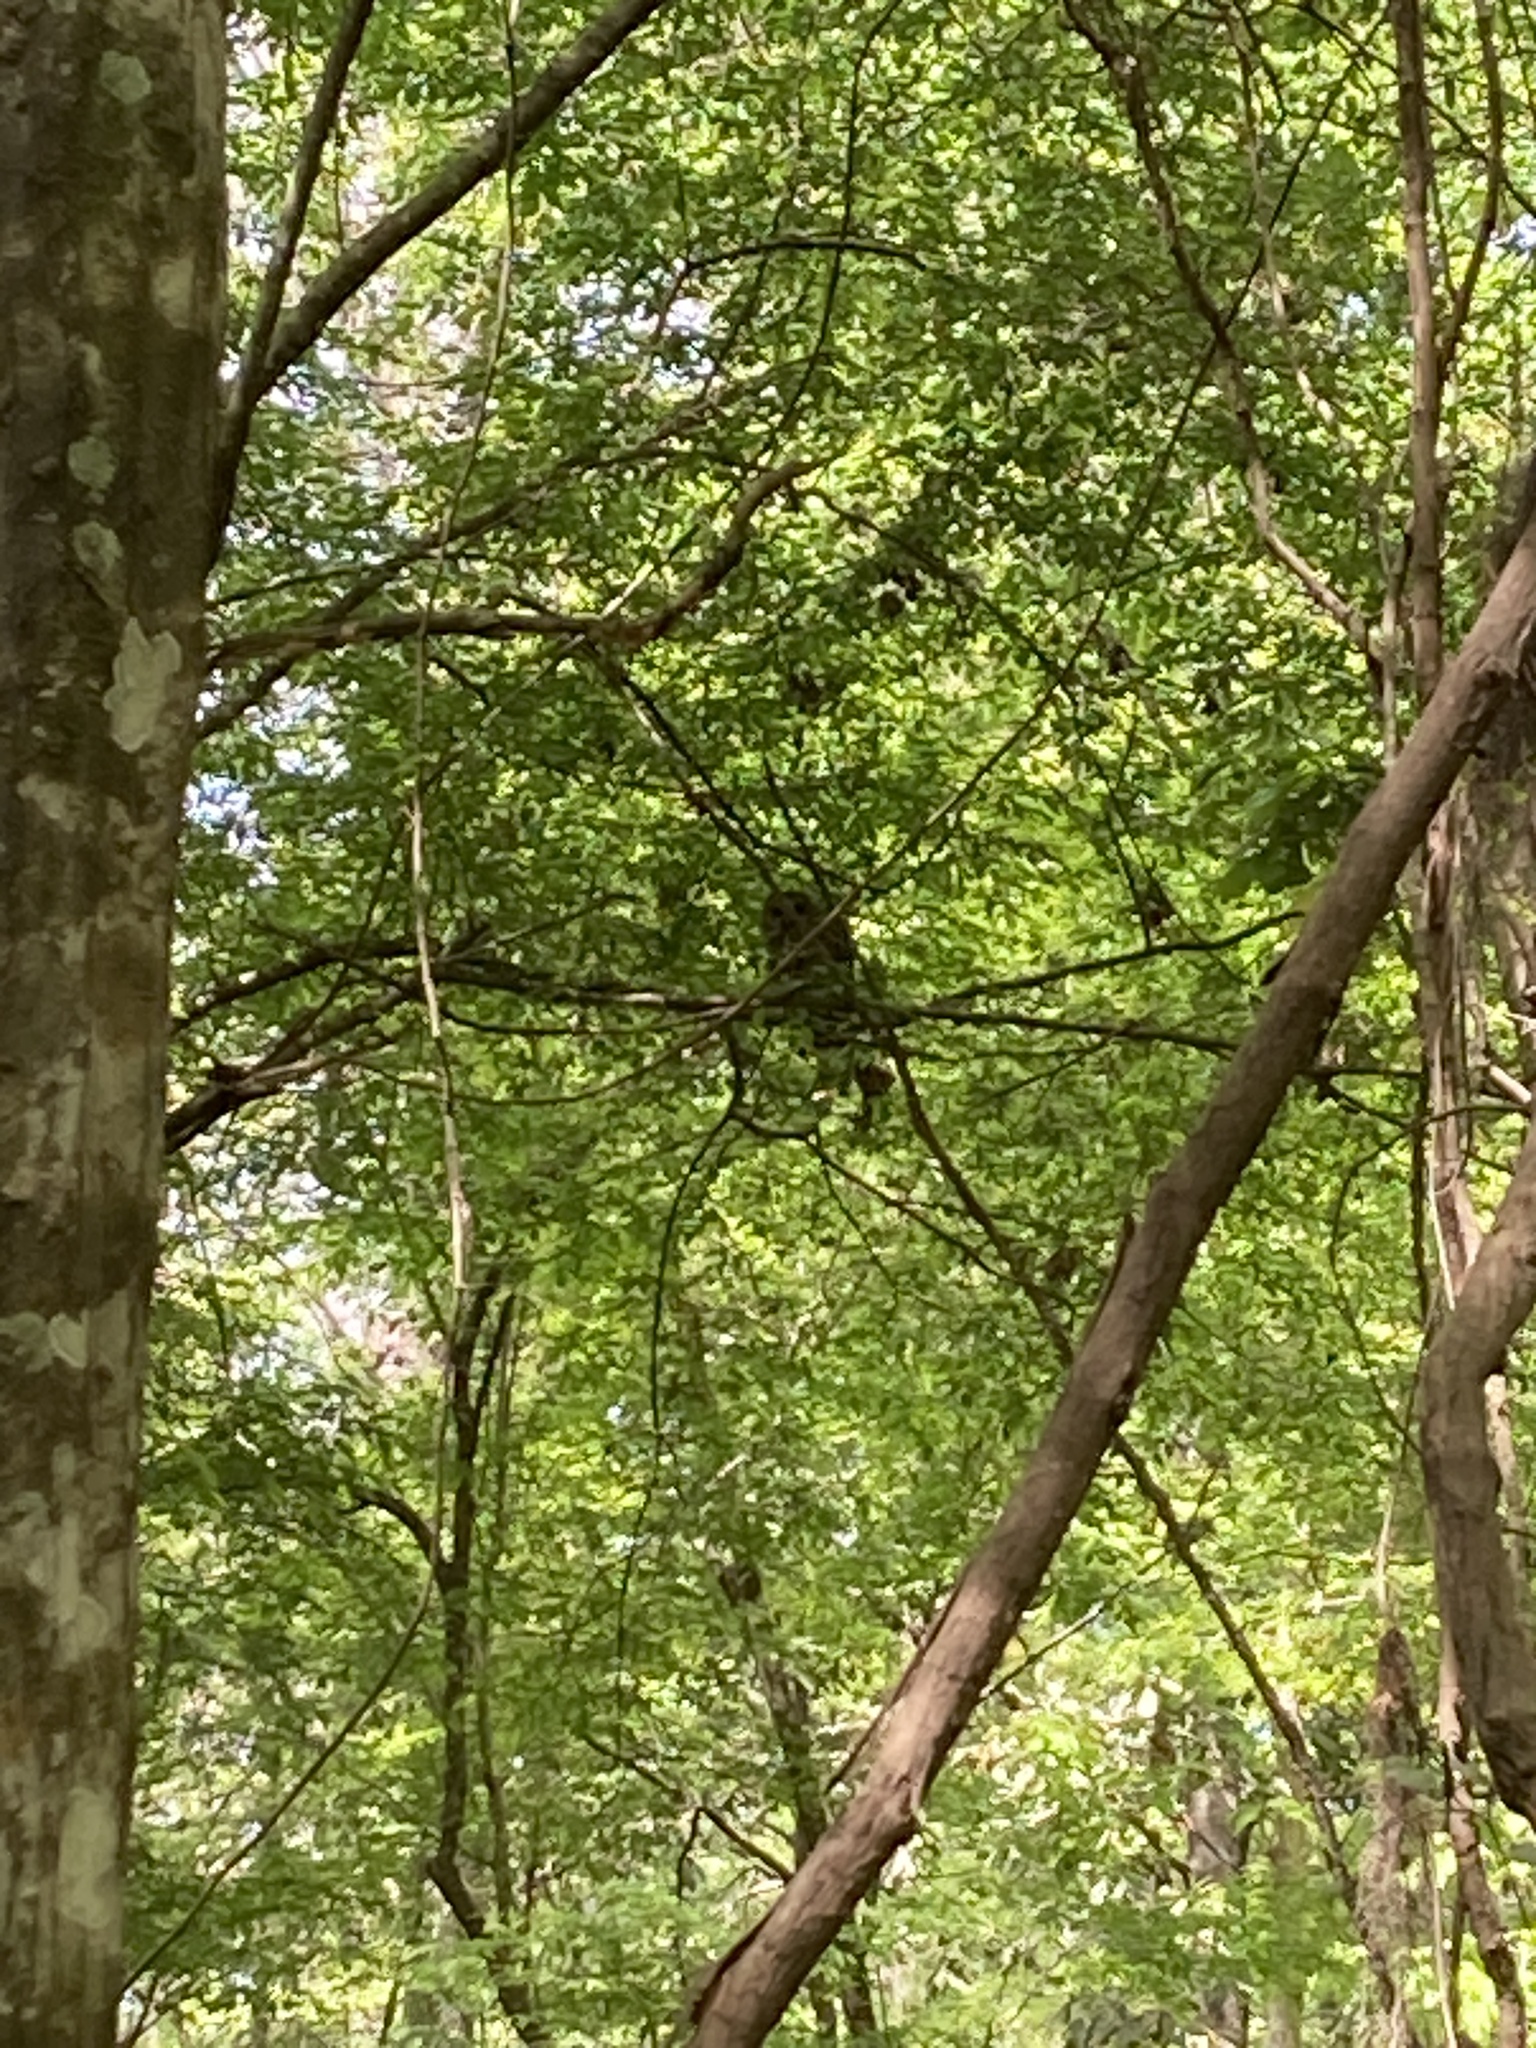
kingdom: Animalia
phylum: Chordata
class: Aves
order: Strigiformes
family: Strigidae
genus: Strix
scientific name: Strix varia
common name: Barred owl
